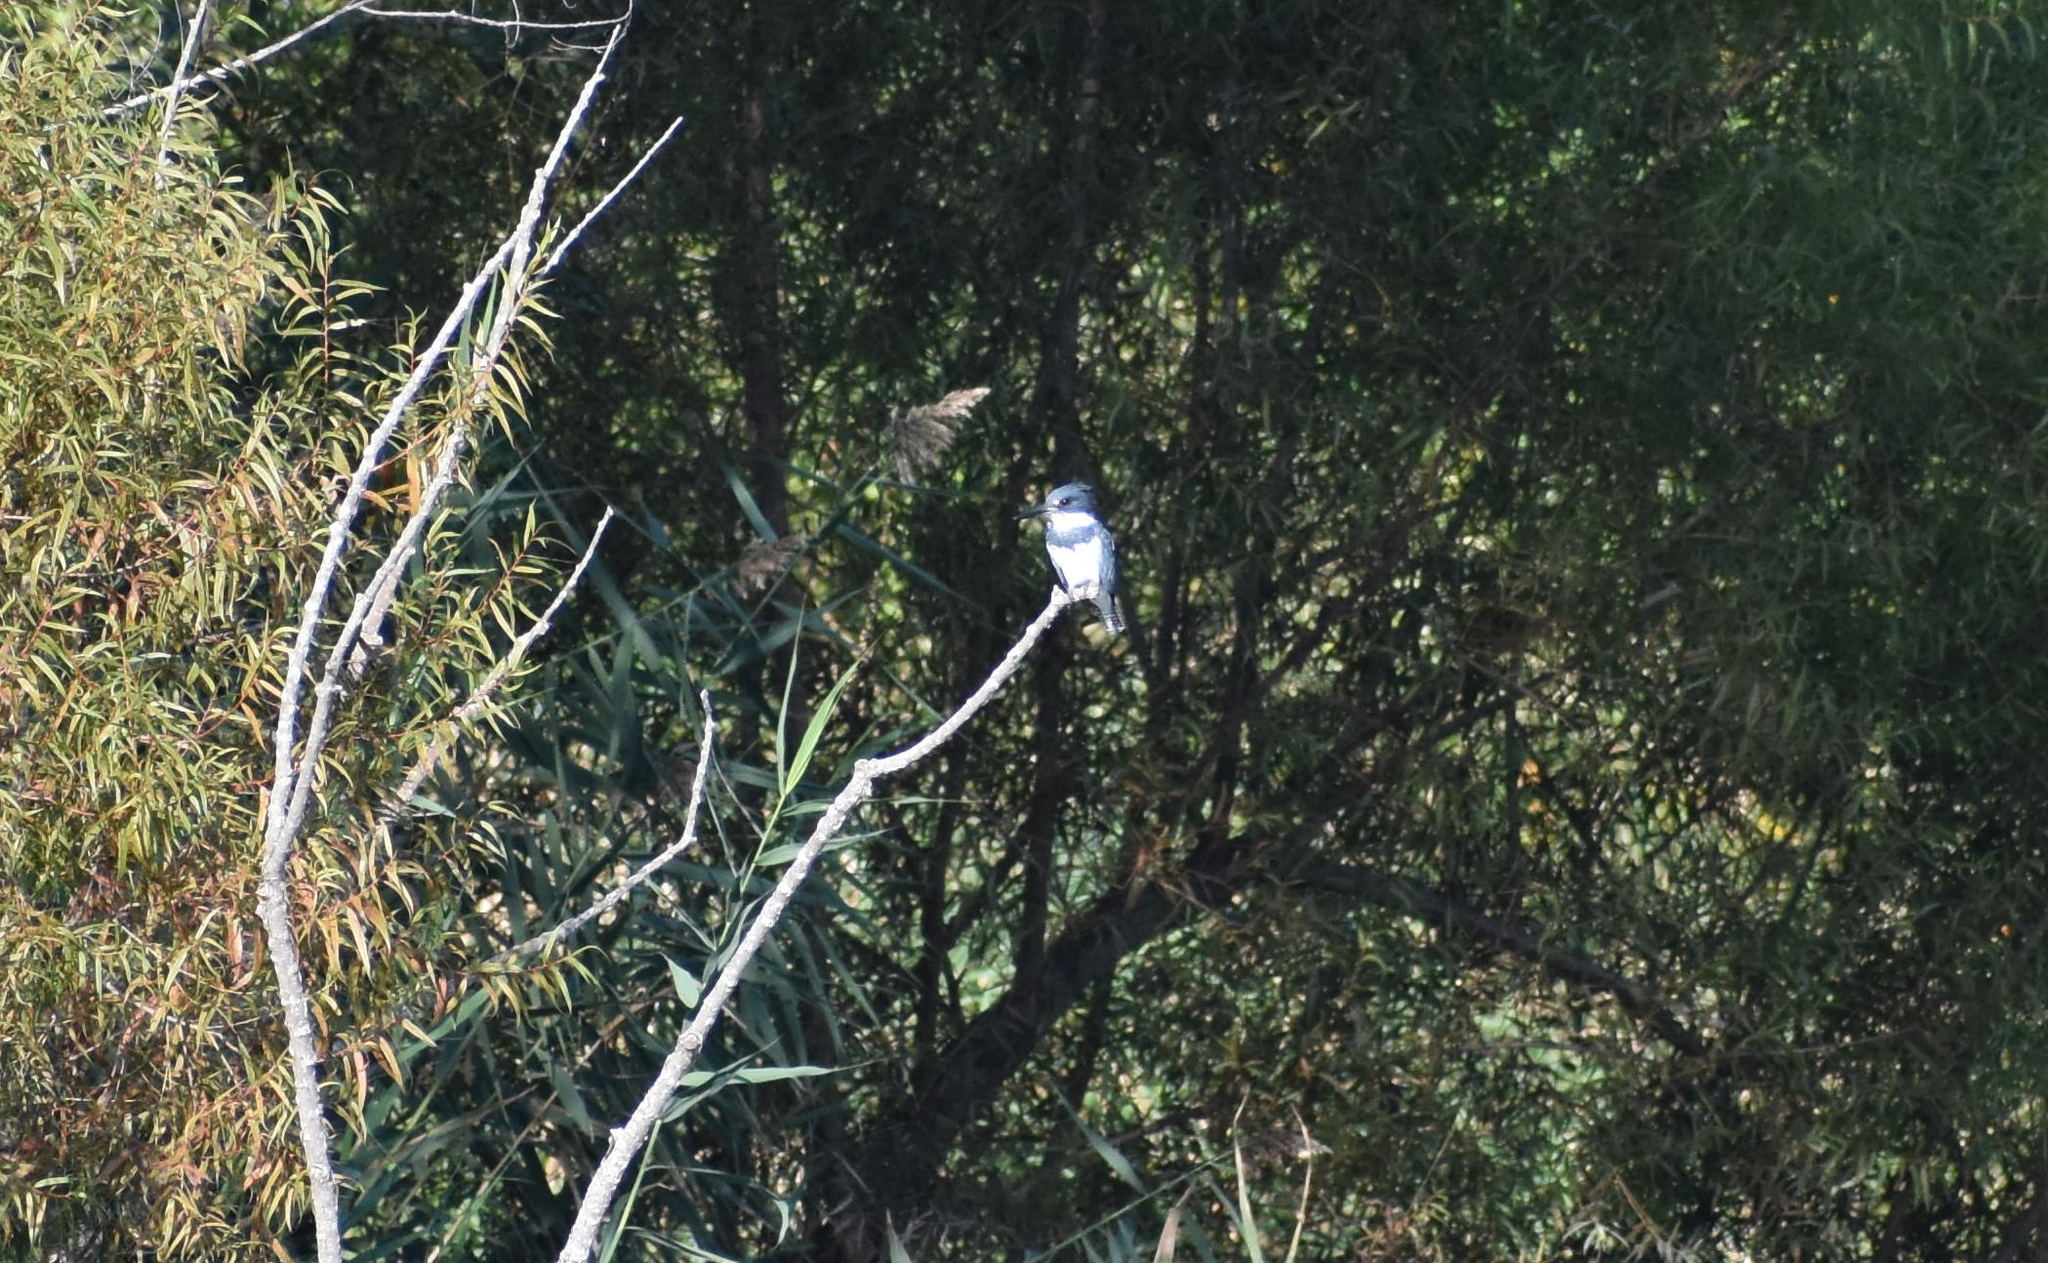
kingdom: Animalia
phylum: Chordata
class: Aves
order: Coraciiformes
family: Alcedinidae
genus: Megaceryle
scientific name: Megaceryle alcyon
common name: Belted kingfisher
